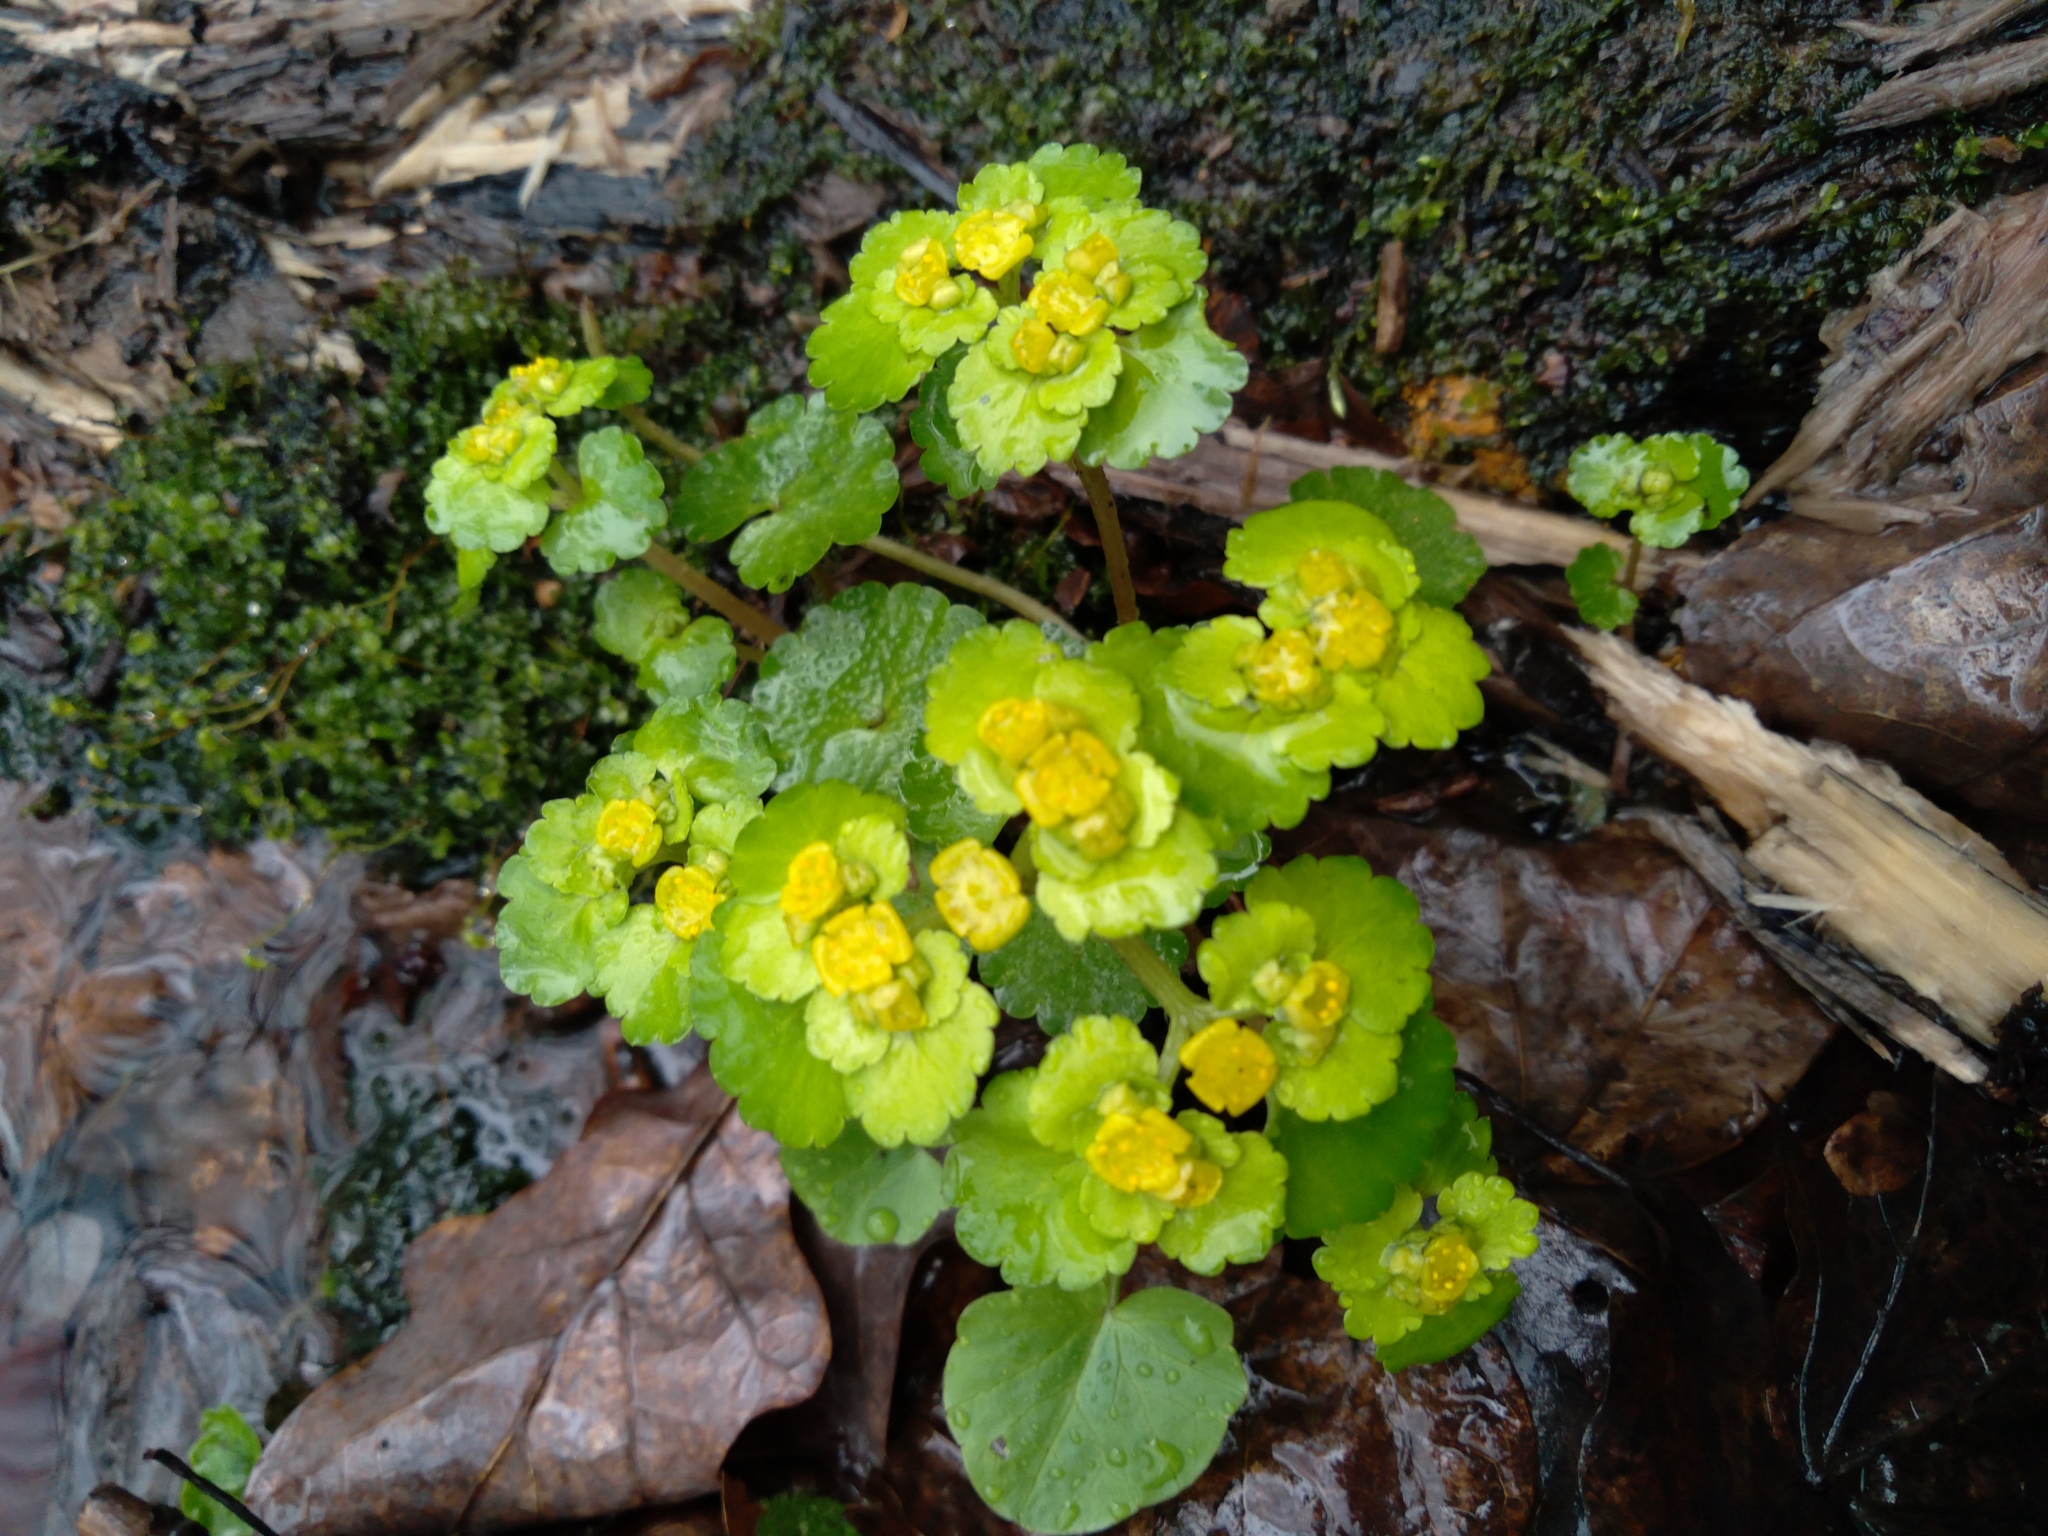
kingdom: Plantae
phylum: Tracheophyta
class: Magnoliopsida
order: Saxifragales
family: Saxifragaceae
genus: Chrysosplenium
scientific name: Chrysosplenium alternifolium
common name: Alternate-leaved golden-saxifrage
